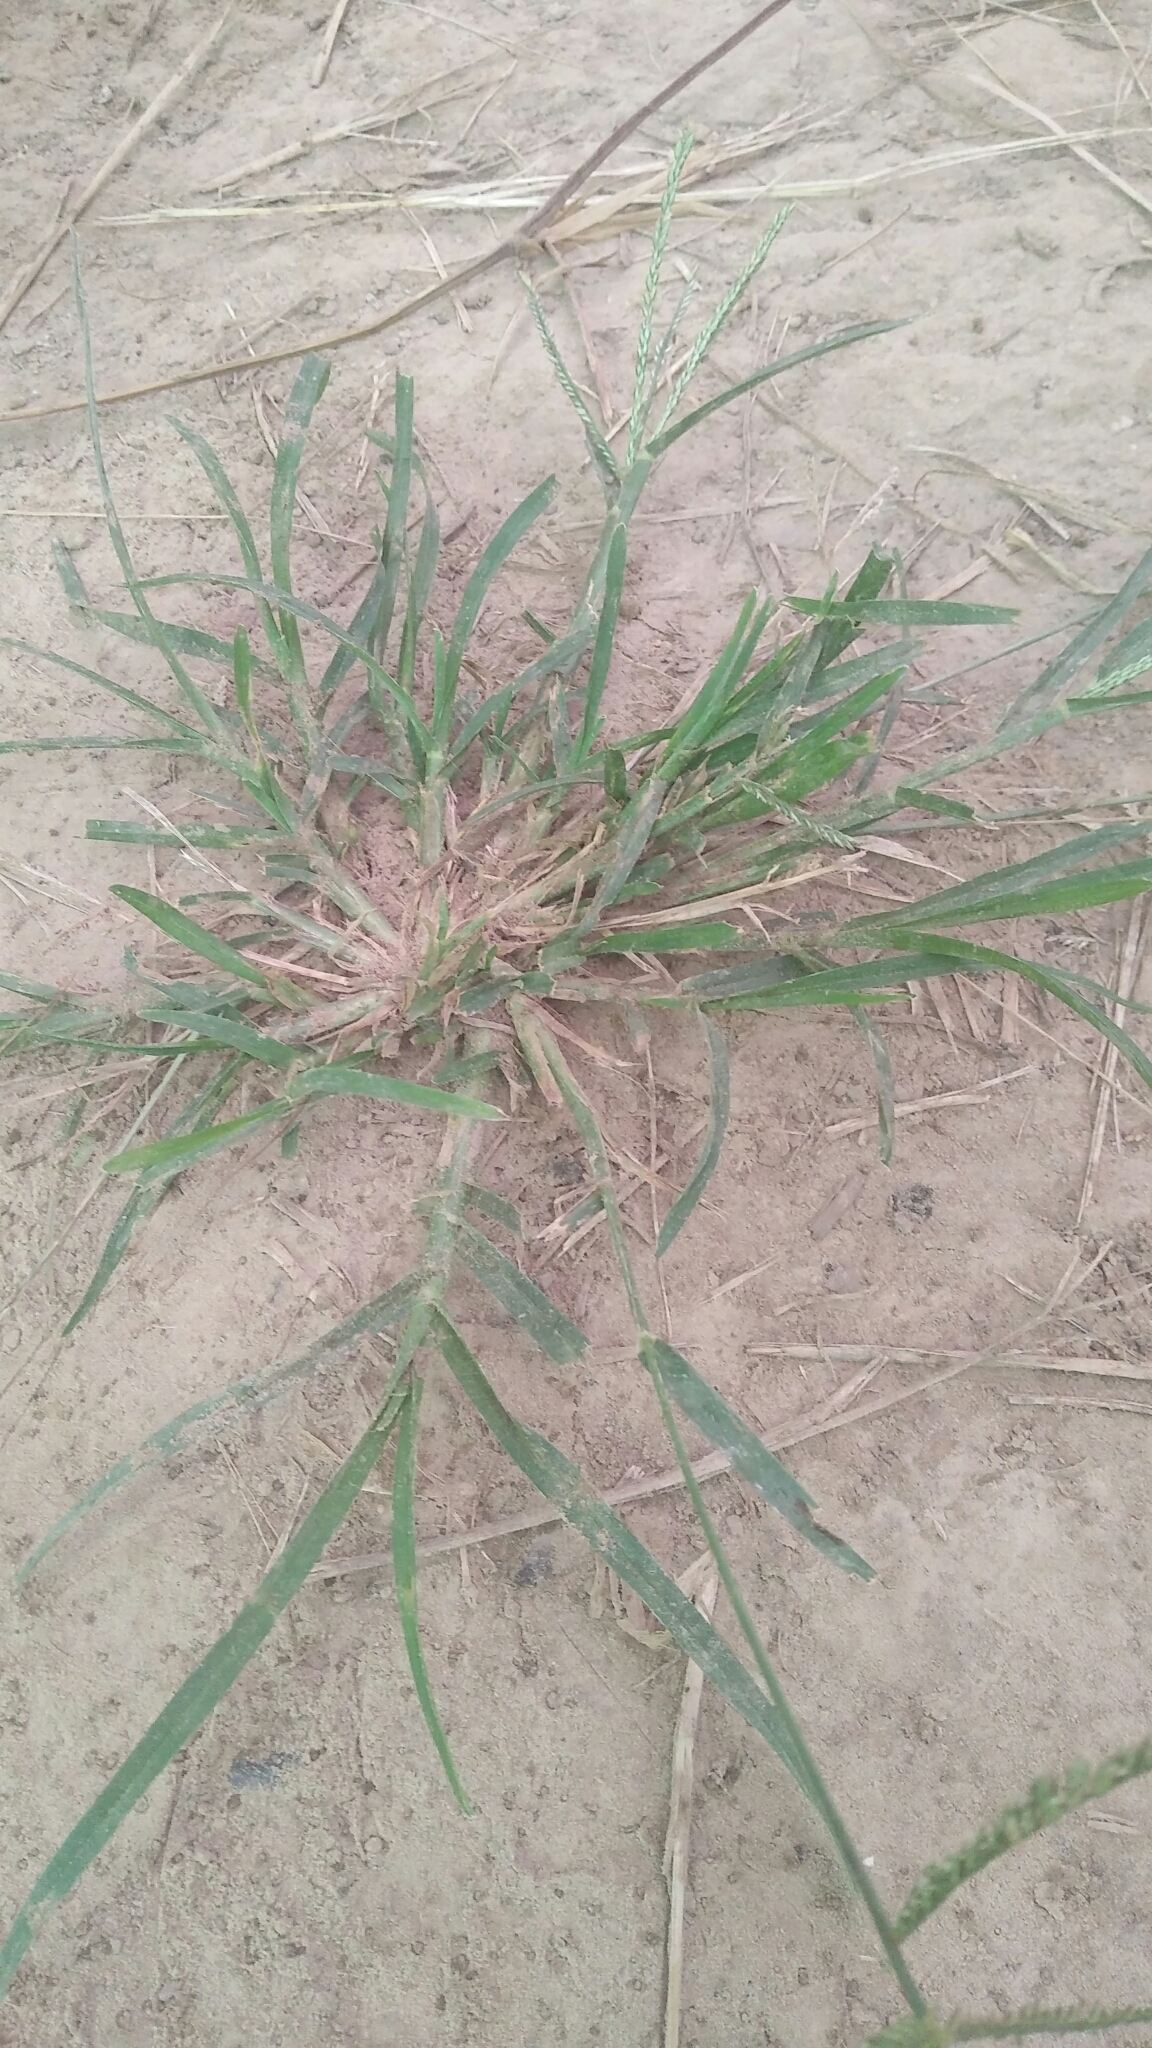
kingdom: Plantae
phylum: Tracheophyta
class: Liliopsida
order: Poales
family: Poaceae
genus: Eleusine
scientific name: Eleusine indica
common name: Yard-grass
